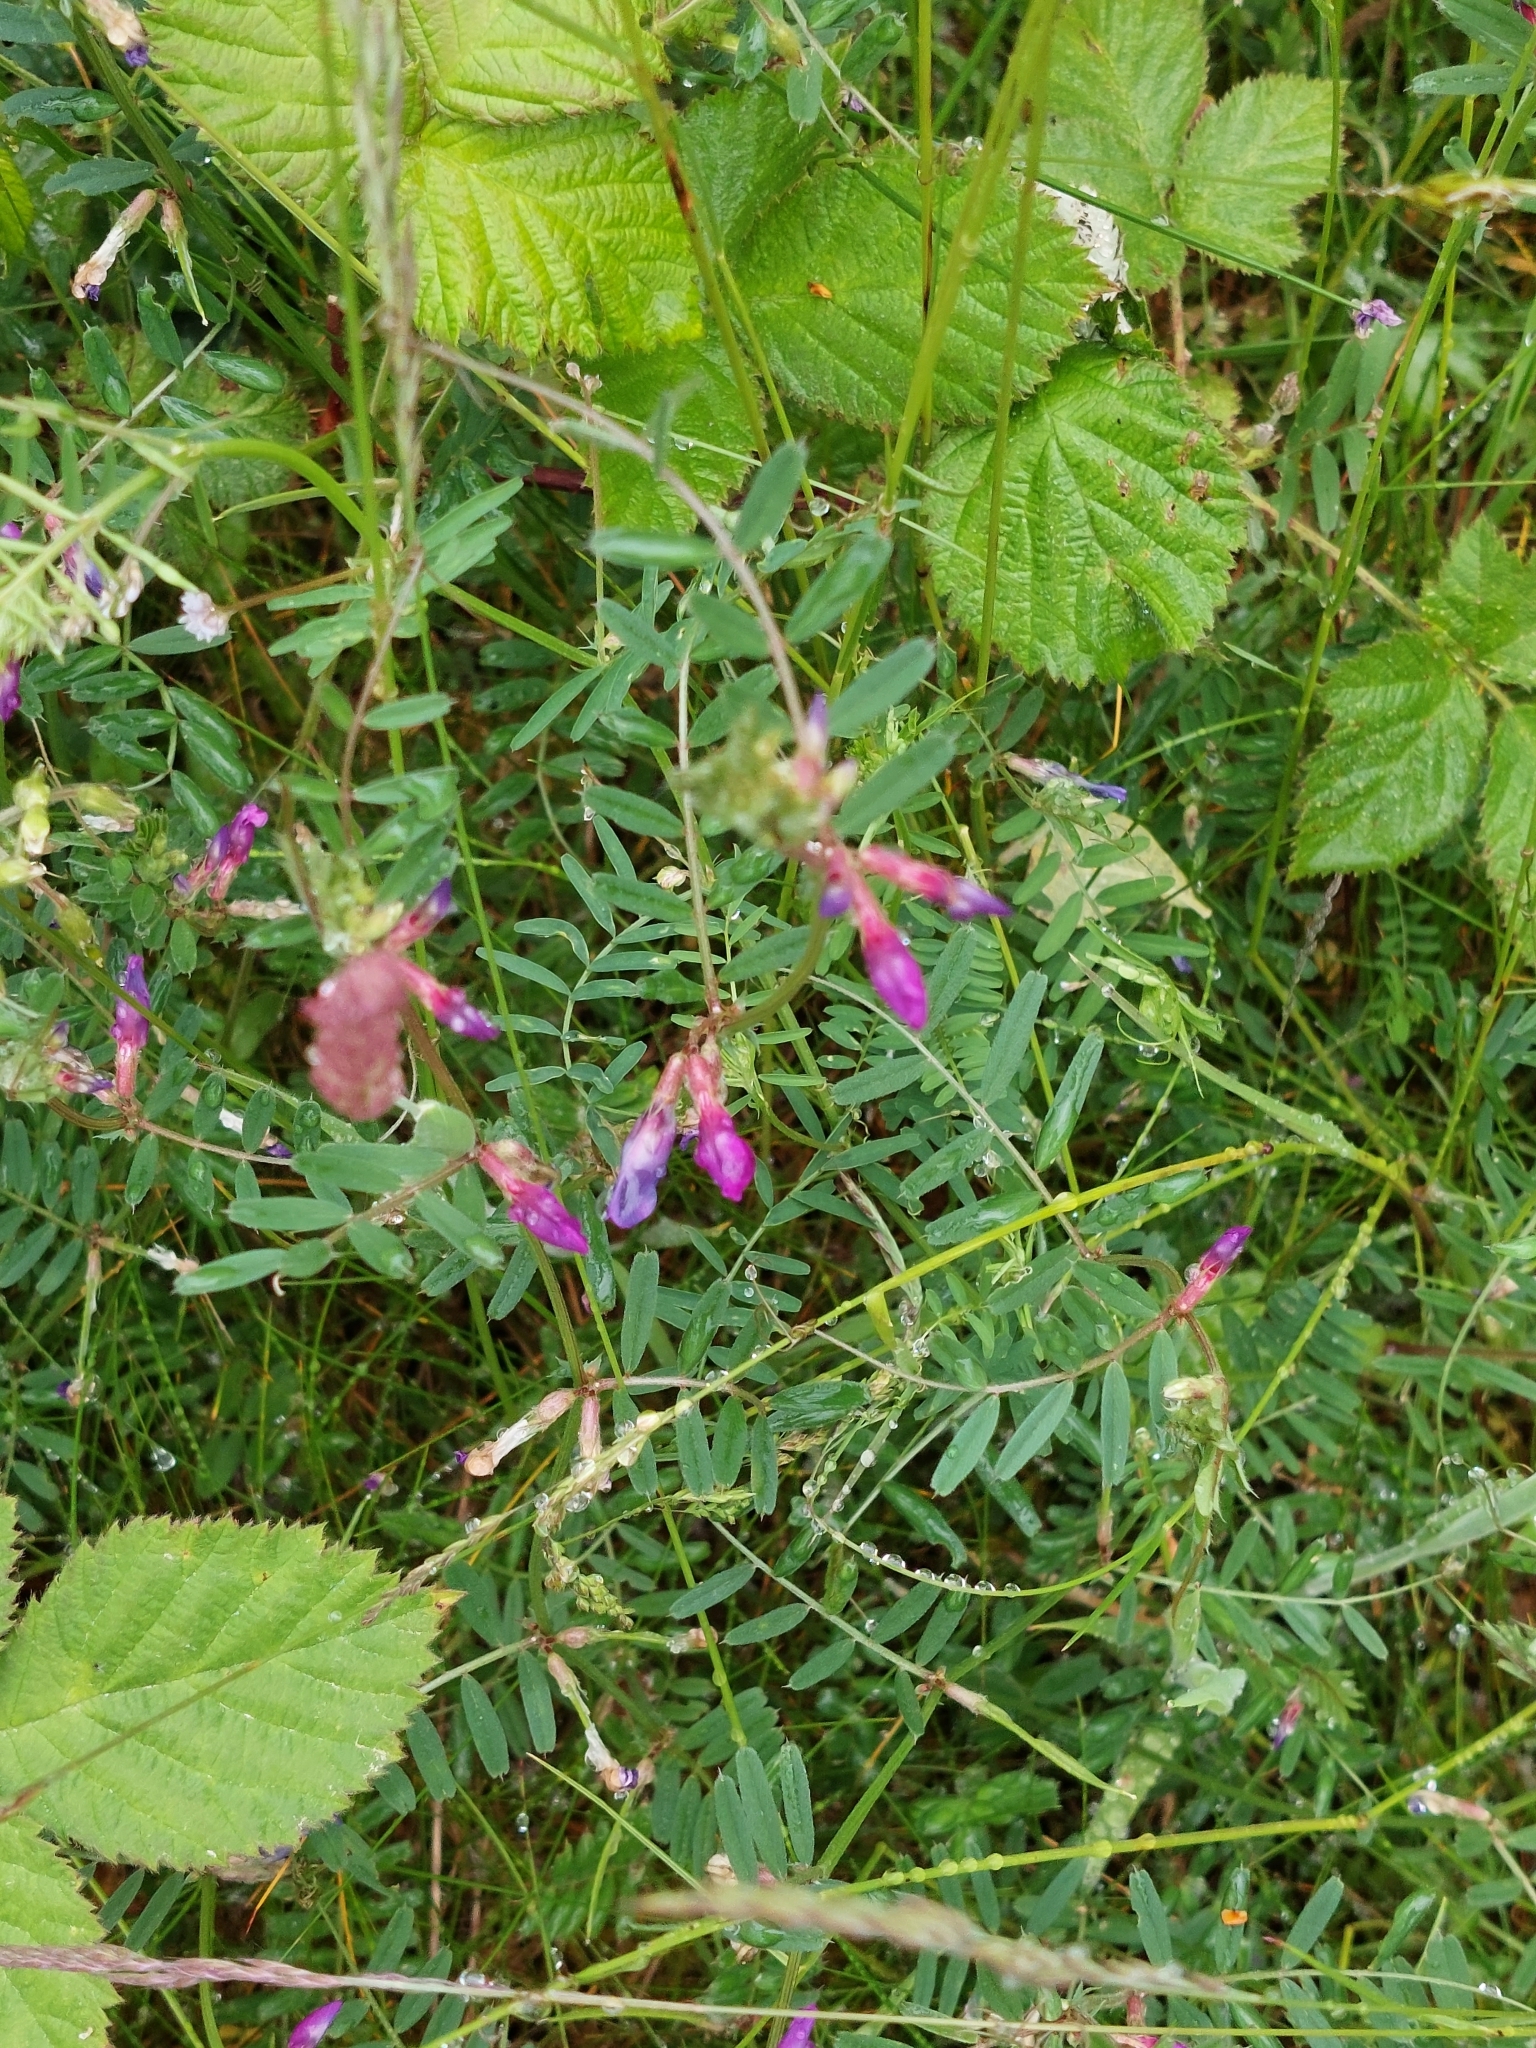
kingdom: Plantae
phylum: Tracheophyta
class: Magnoliopsida
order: Fabales
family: Fabaceae
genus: Vicia
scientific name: Vicia sativa
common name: Garden vetch
